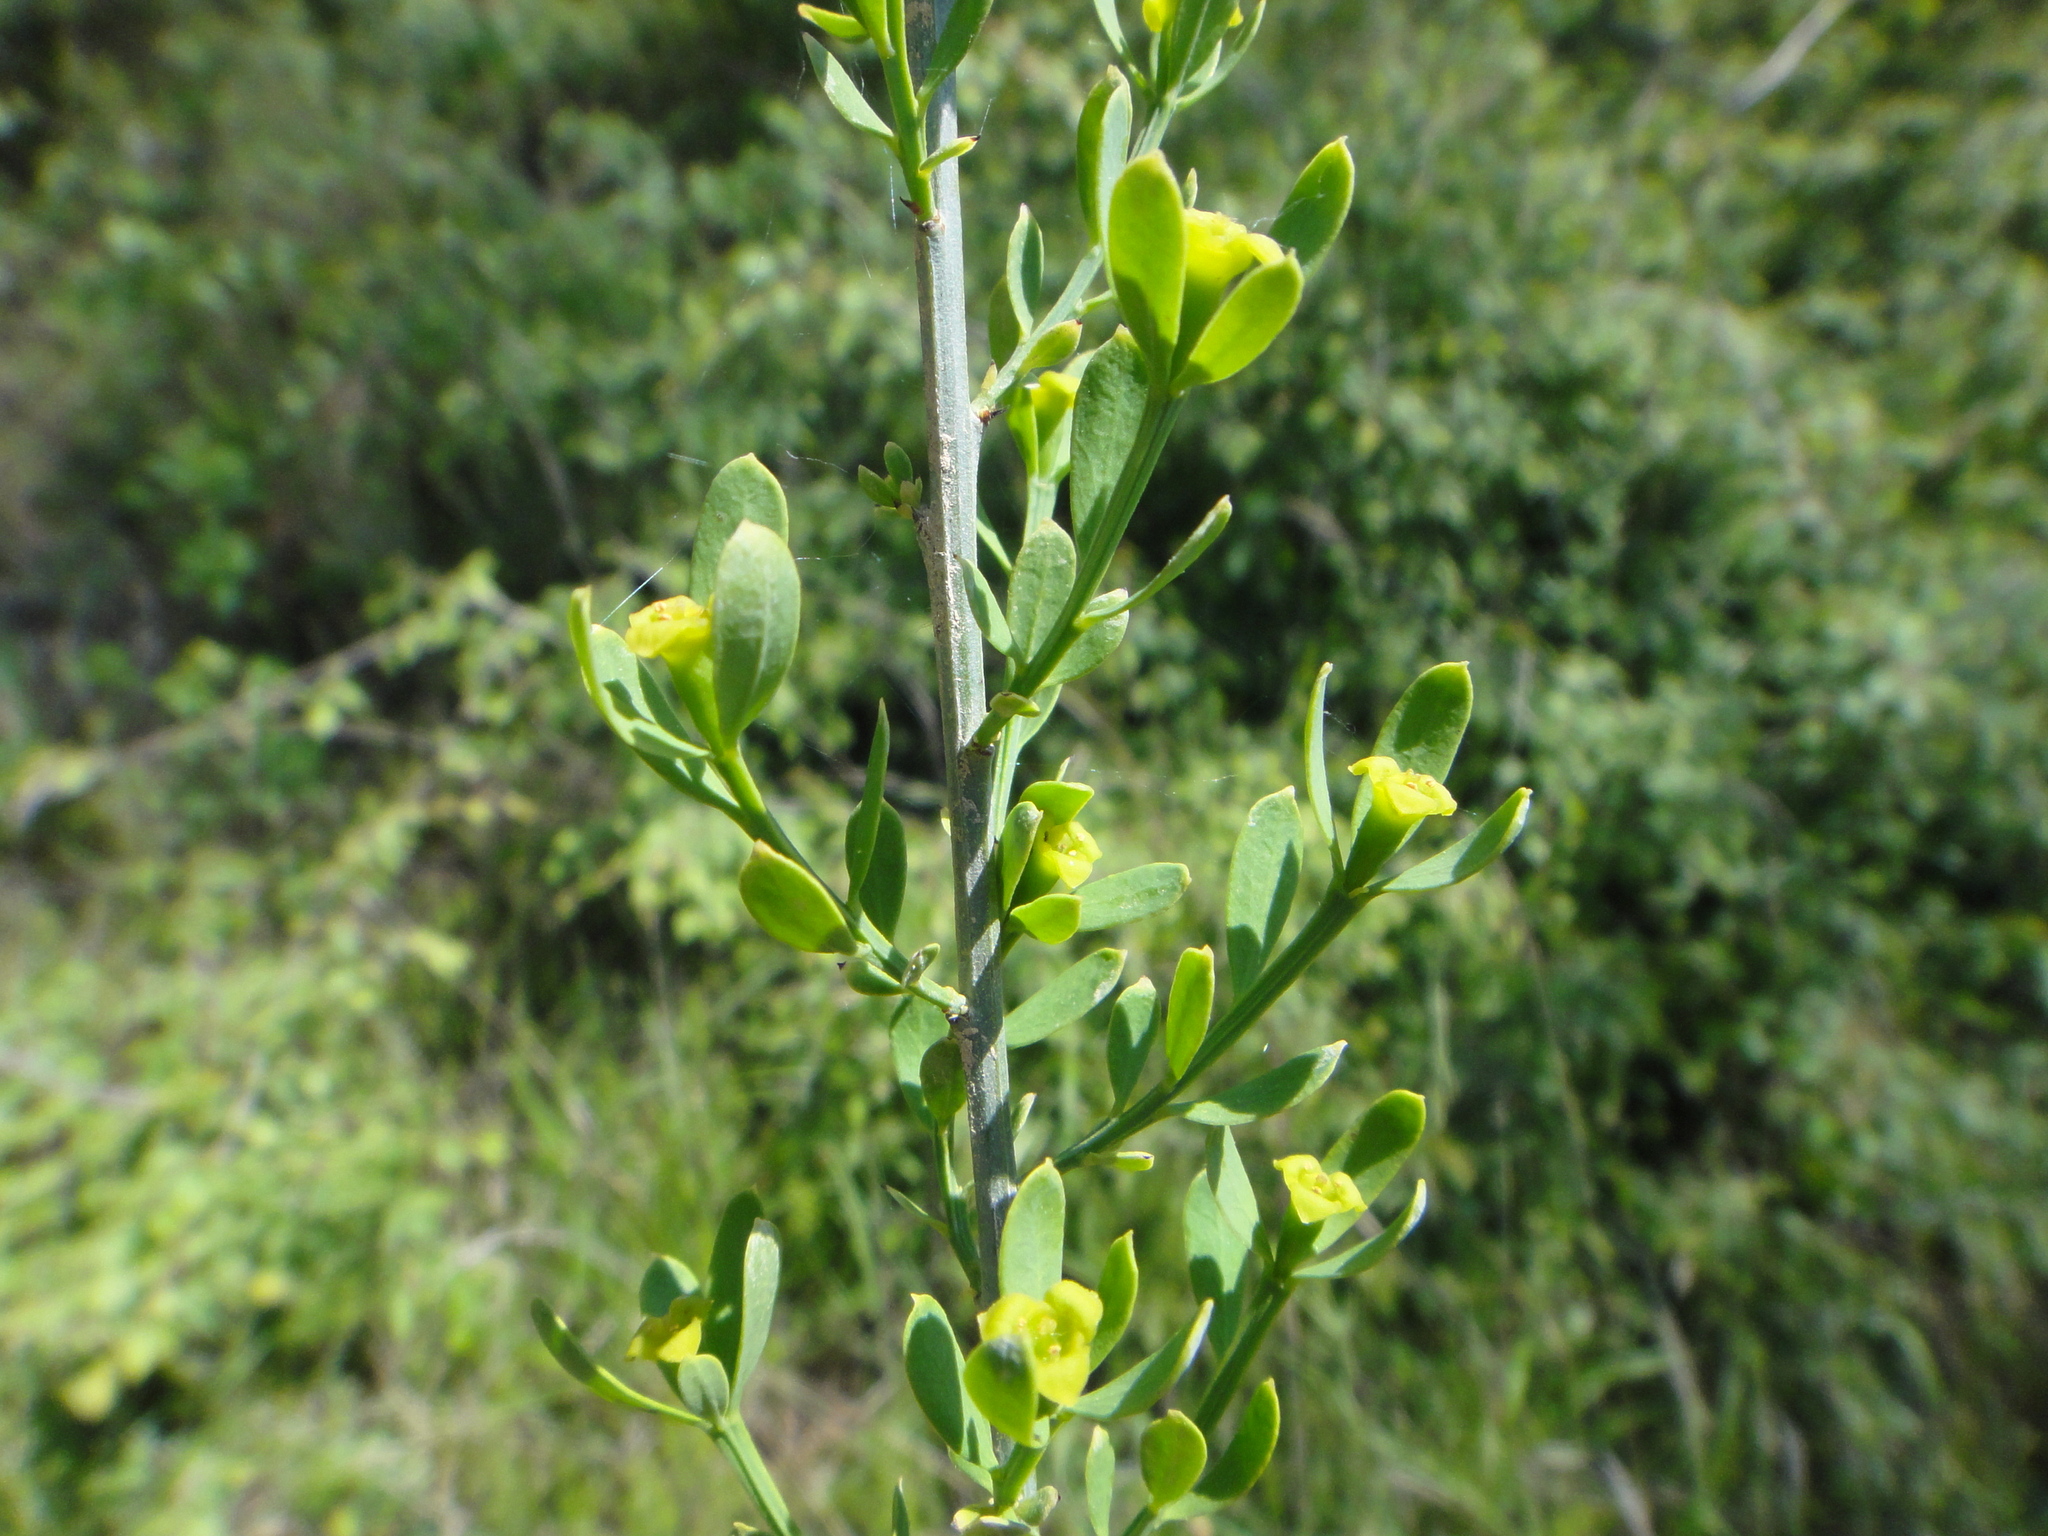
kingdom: Plantae
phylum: Tracheophyta
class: Magnoliopsida
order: Santalales
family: Santalaceae
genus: Osyris
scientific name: Osyris alba
